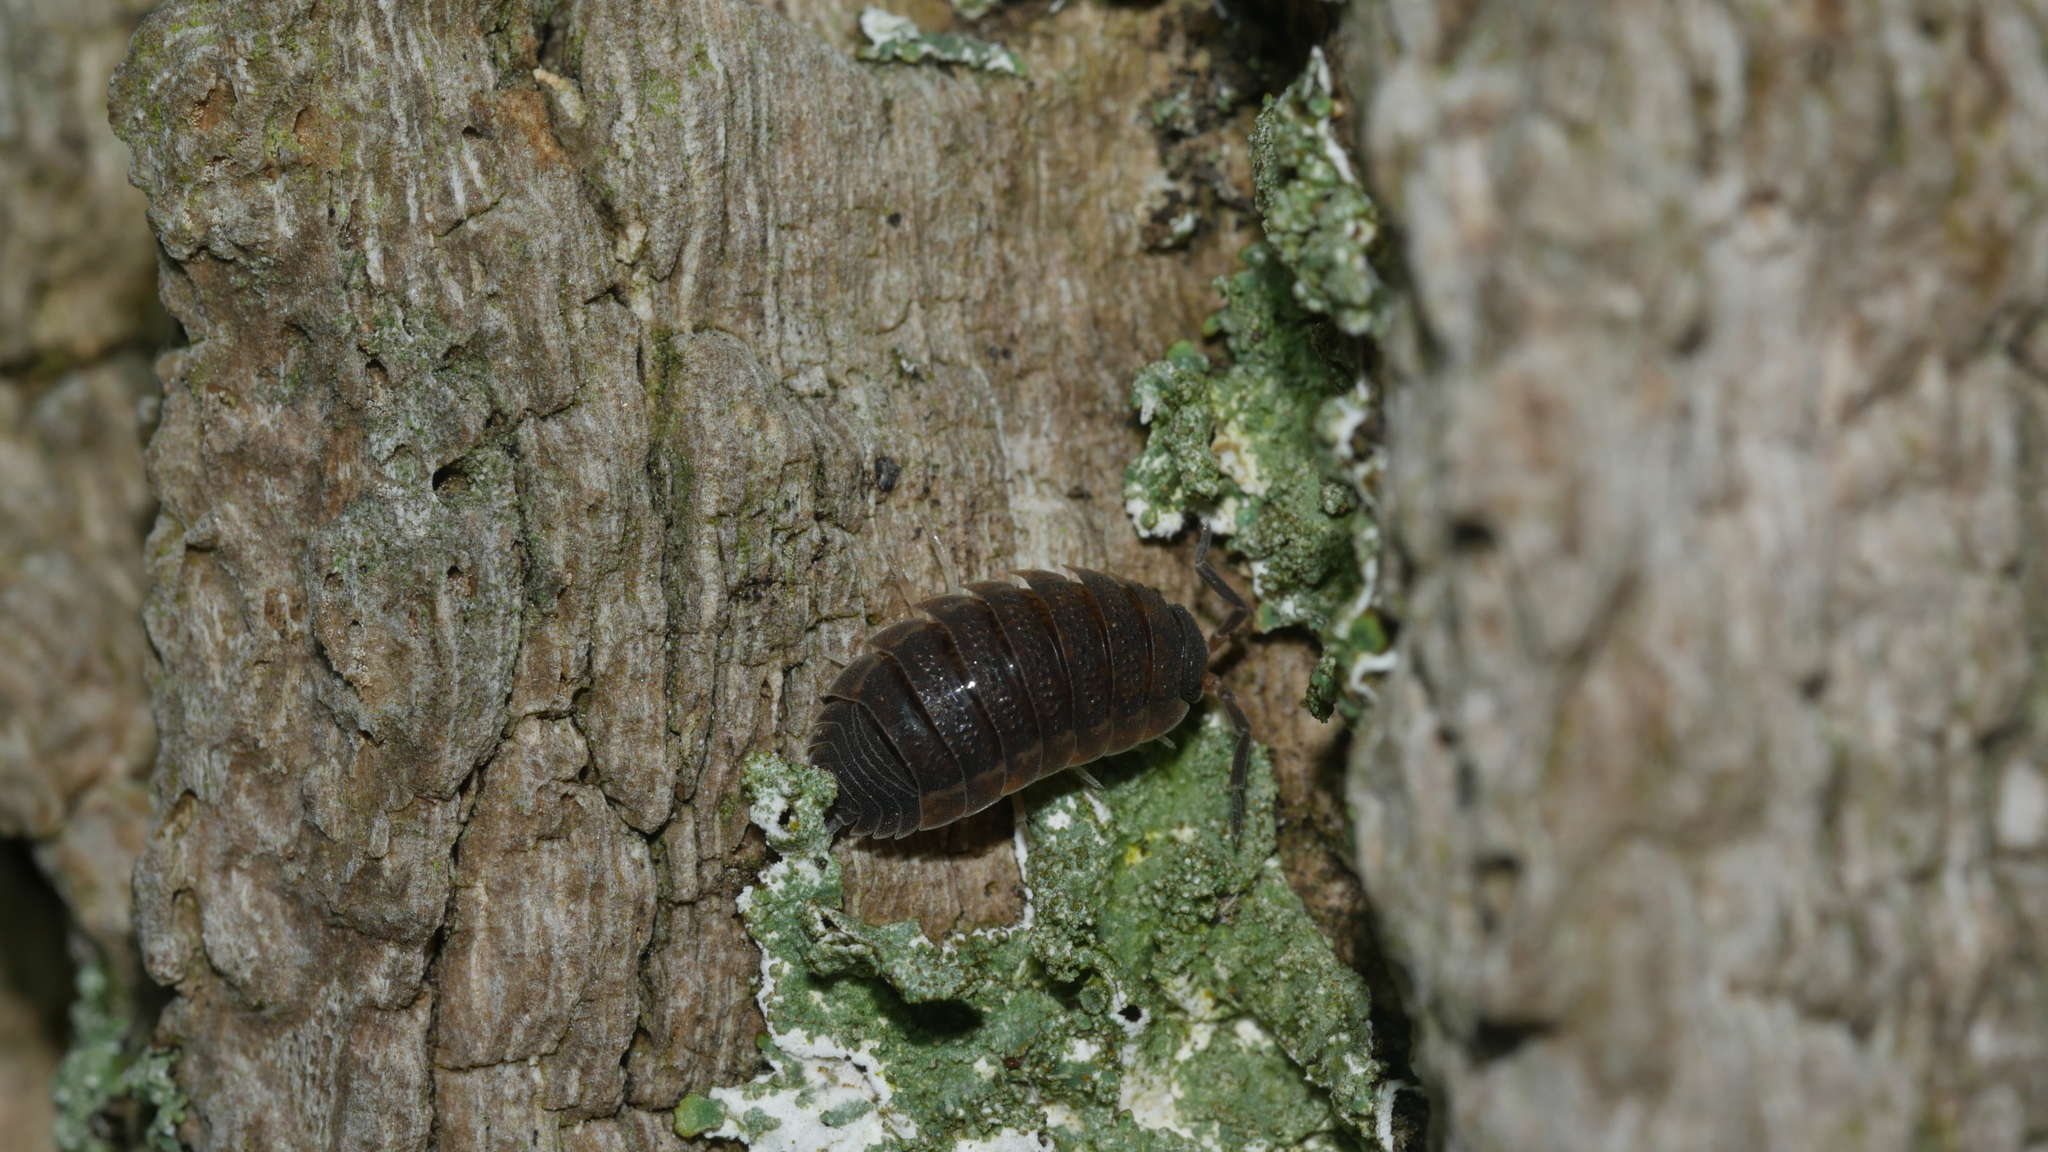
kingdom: Animalia
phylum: Arthropoda
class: Malacostraca
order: Isopoda
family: Porcellionidae
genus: Porcellio
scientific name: Porcellio scaber
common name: Common rough woodlouse
